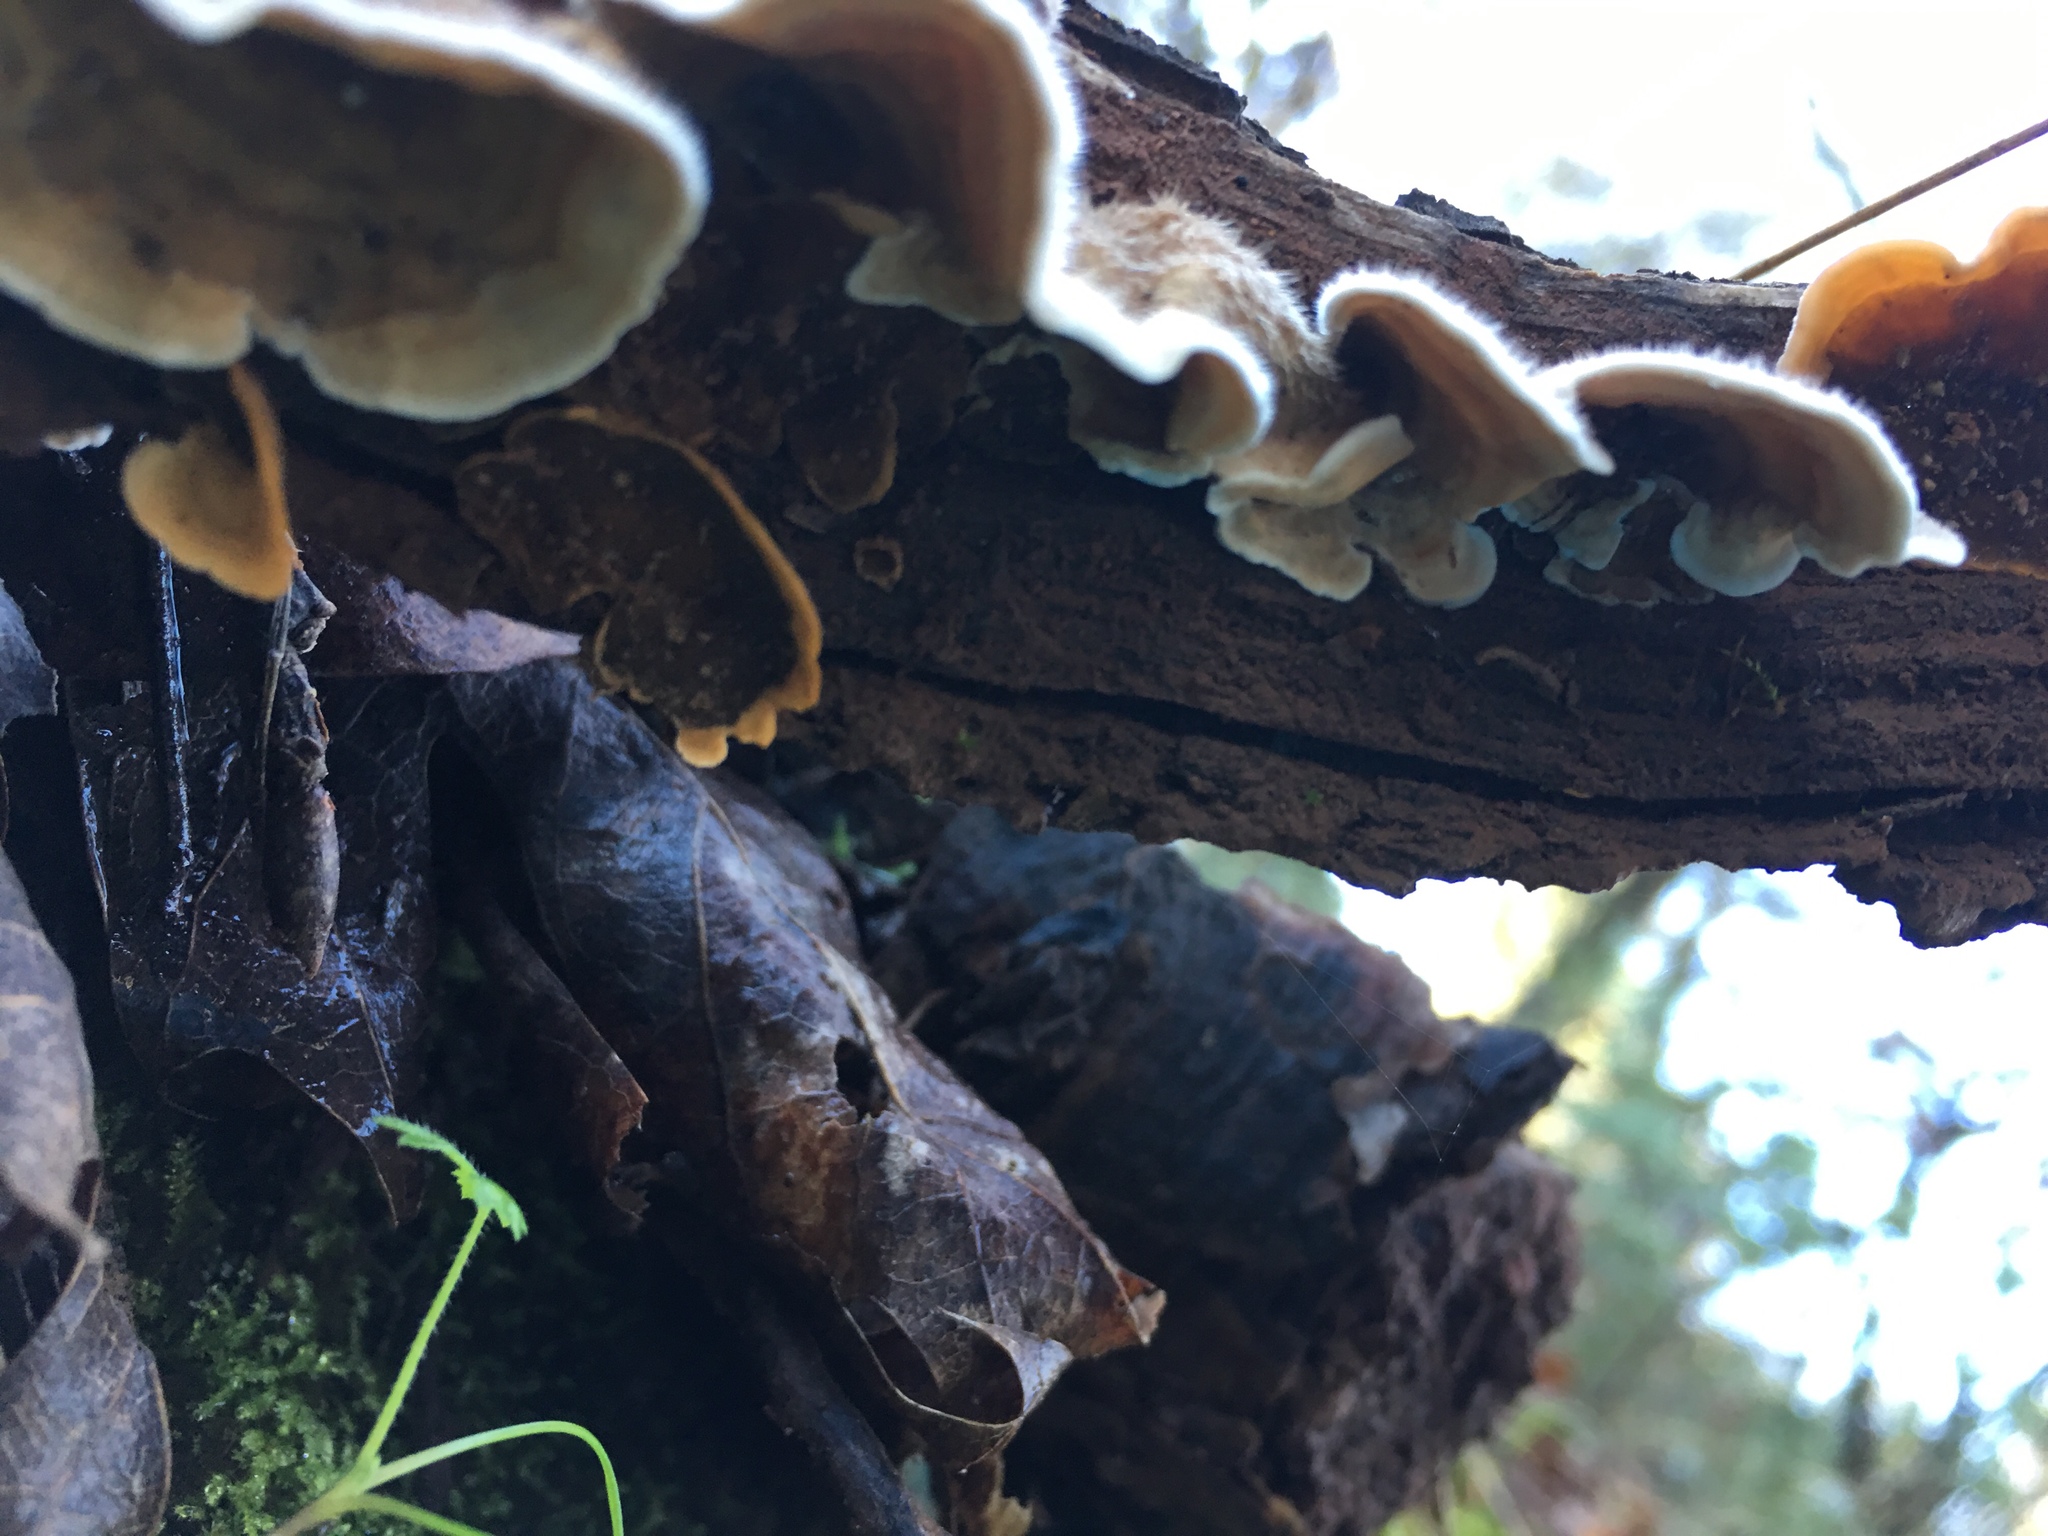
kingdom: Fungi
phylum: Basidiomycota
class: Agaricomycetes
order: Russulales
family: Stereaceae
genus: Stereum
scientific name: Stereum hirsutum
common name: Hairy curtain crust
